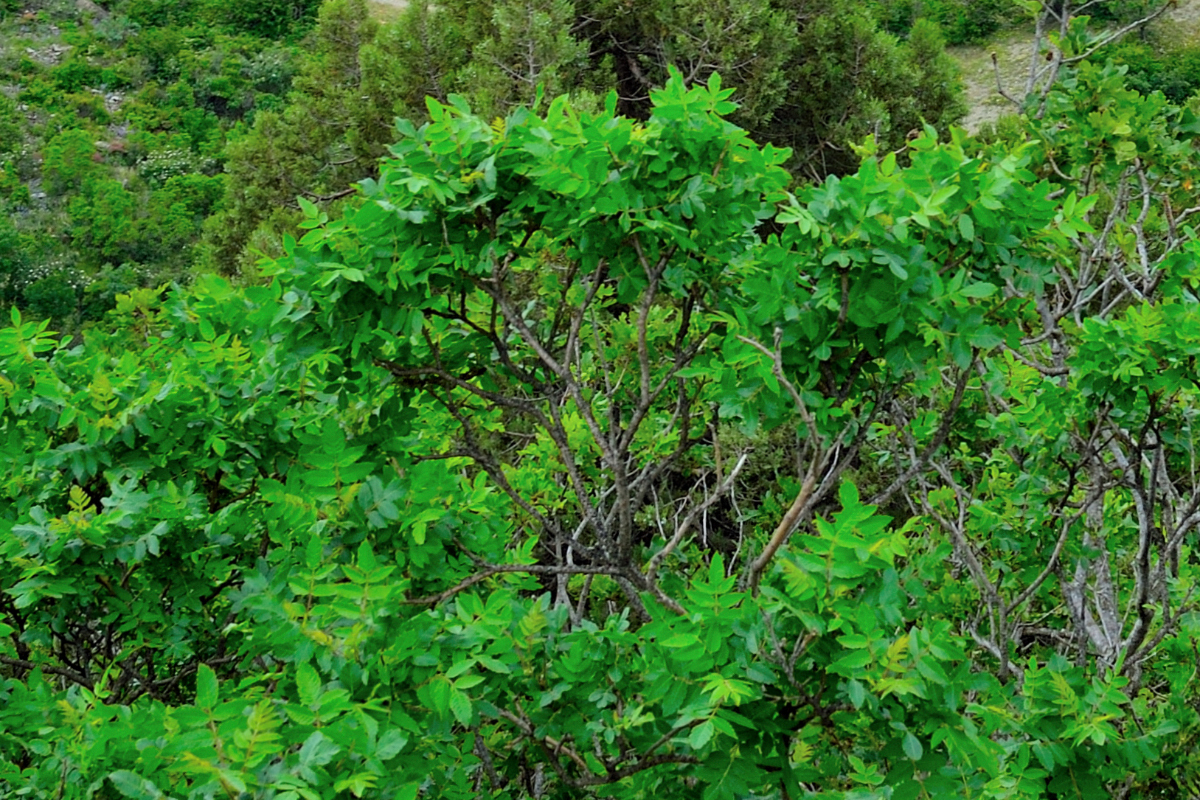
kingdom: Plantae
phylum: Tracheophyta
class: Magnoliopsida
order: Sapindales
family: Anacardiaceae
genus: Rhus
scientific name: Rhus coriaria
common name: Tanner's sumach
